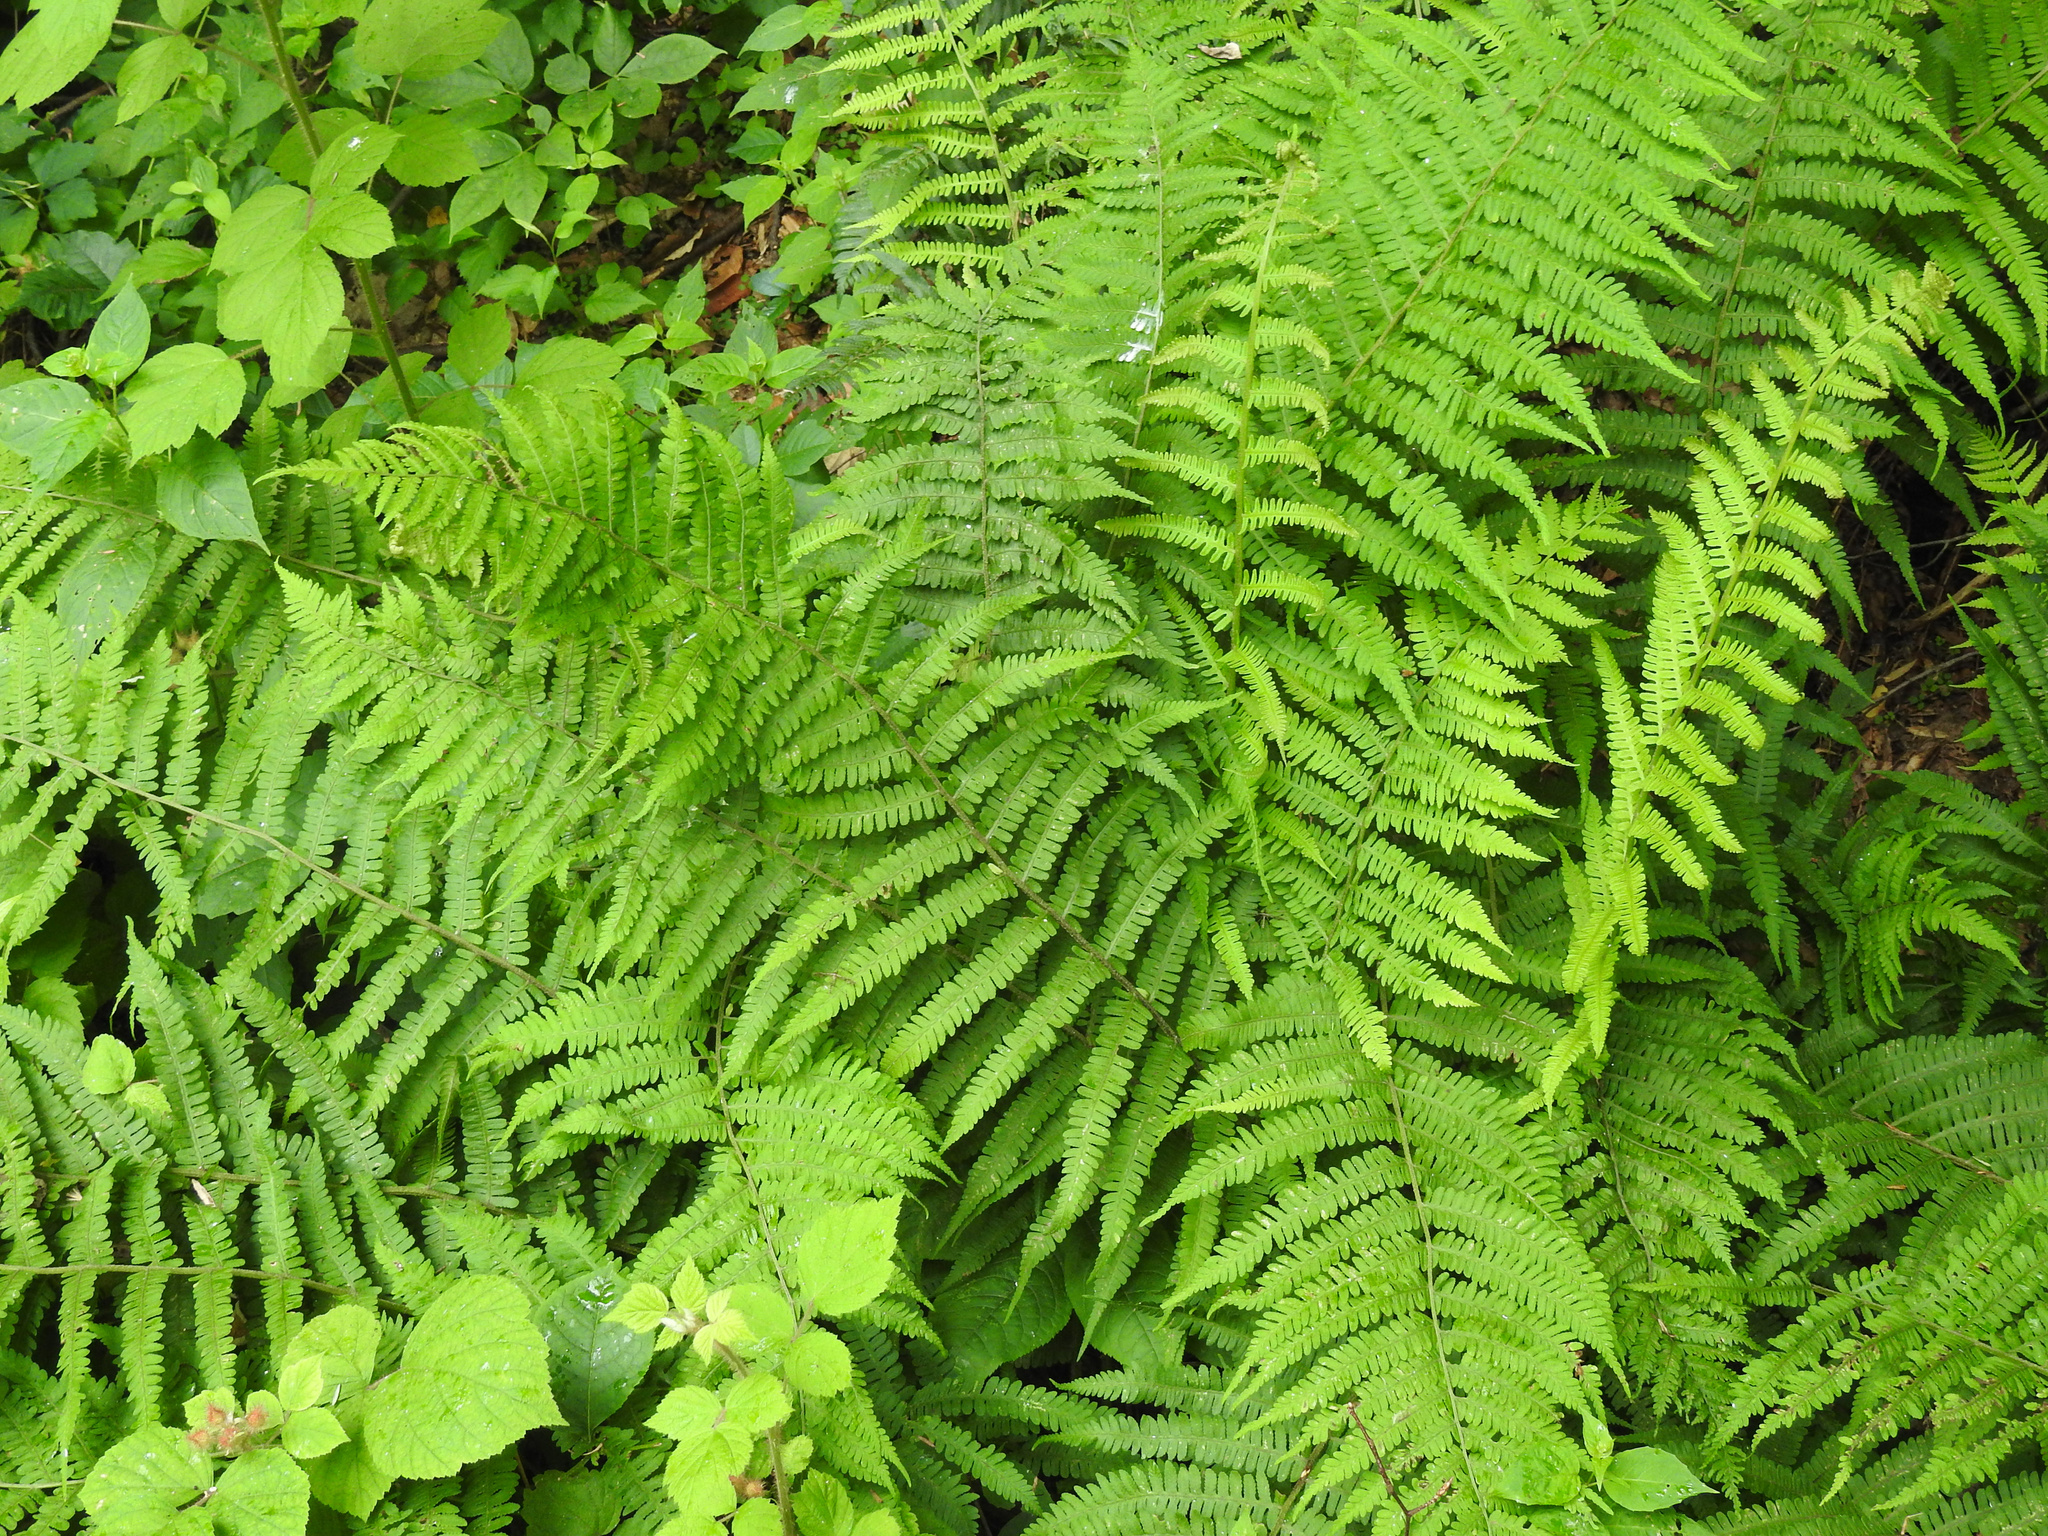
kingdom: Plantae
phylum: Tracheophyta
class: Polypodiopsida
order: Polypodiales
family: Athyriaceae
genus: Deparia
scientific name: Deparia acrostichoides
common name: Silver false spleenwort
